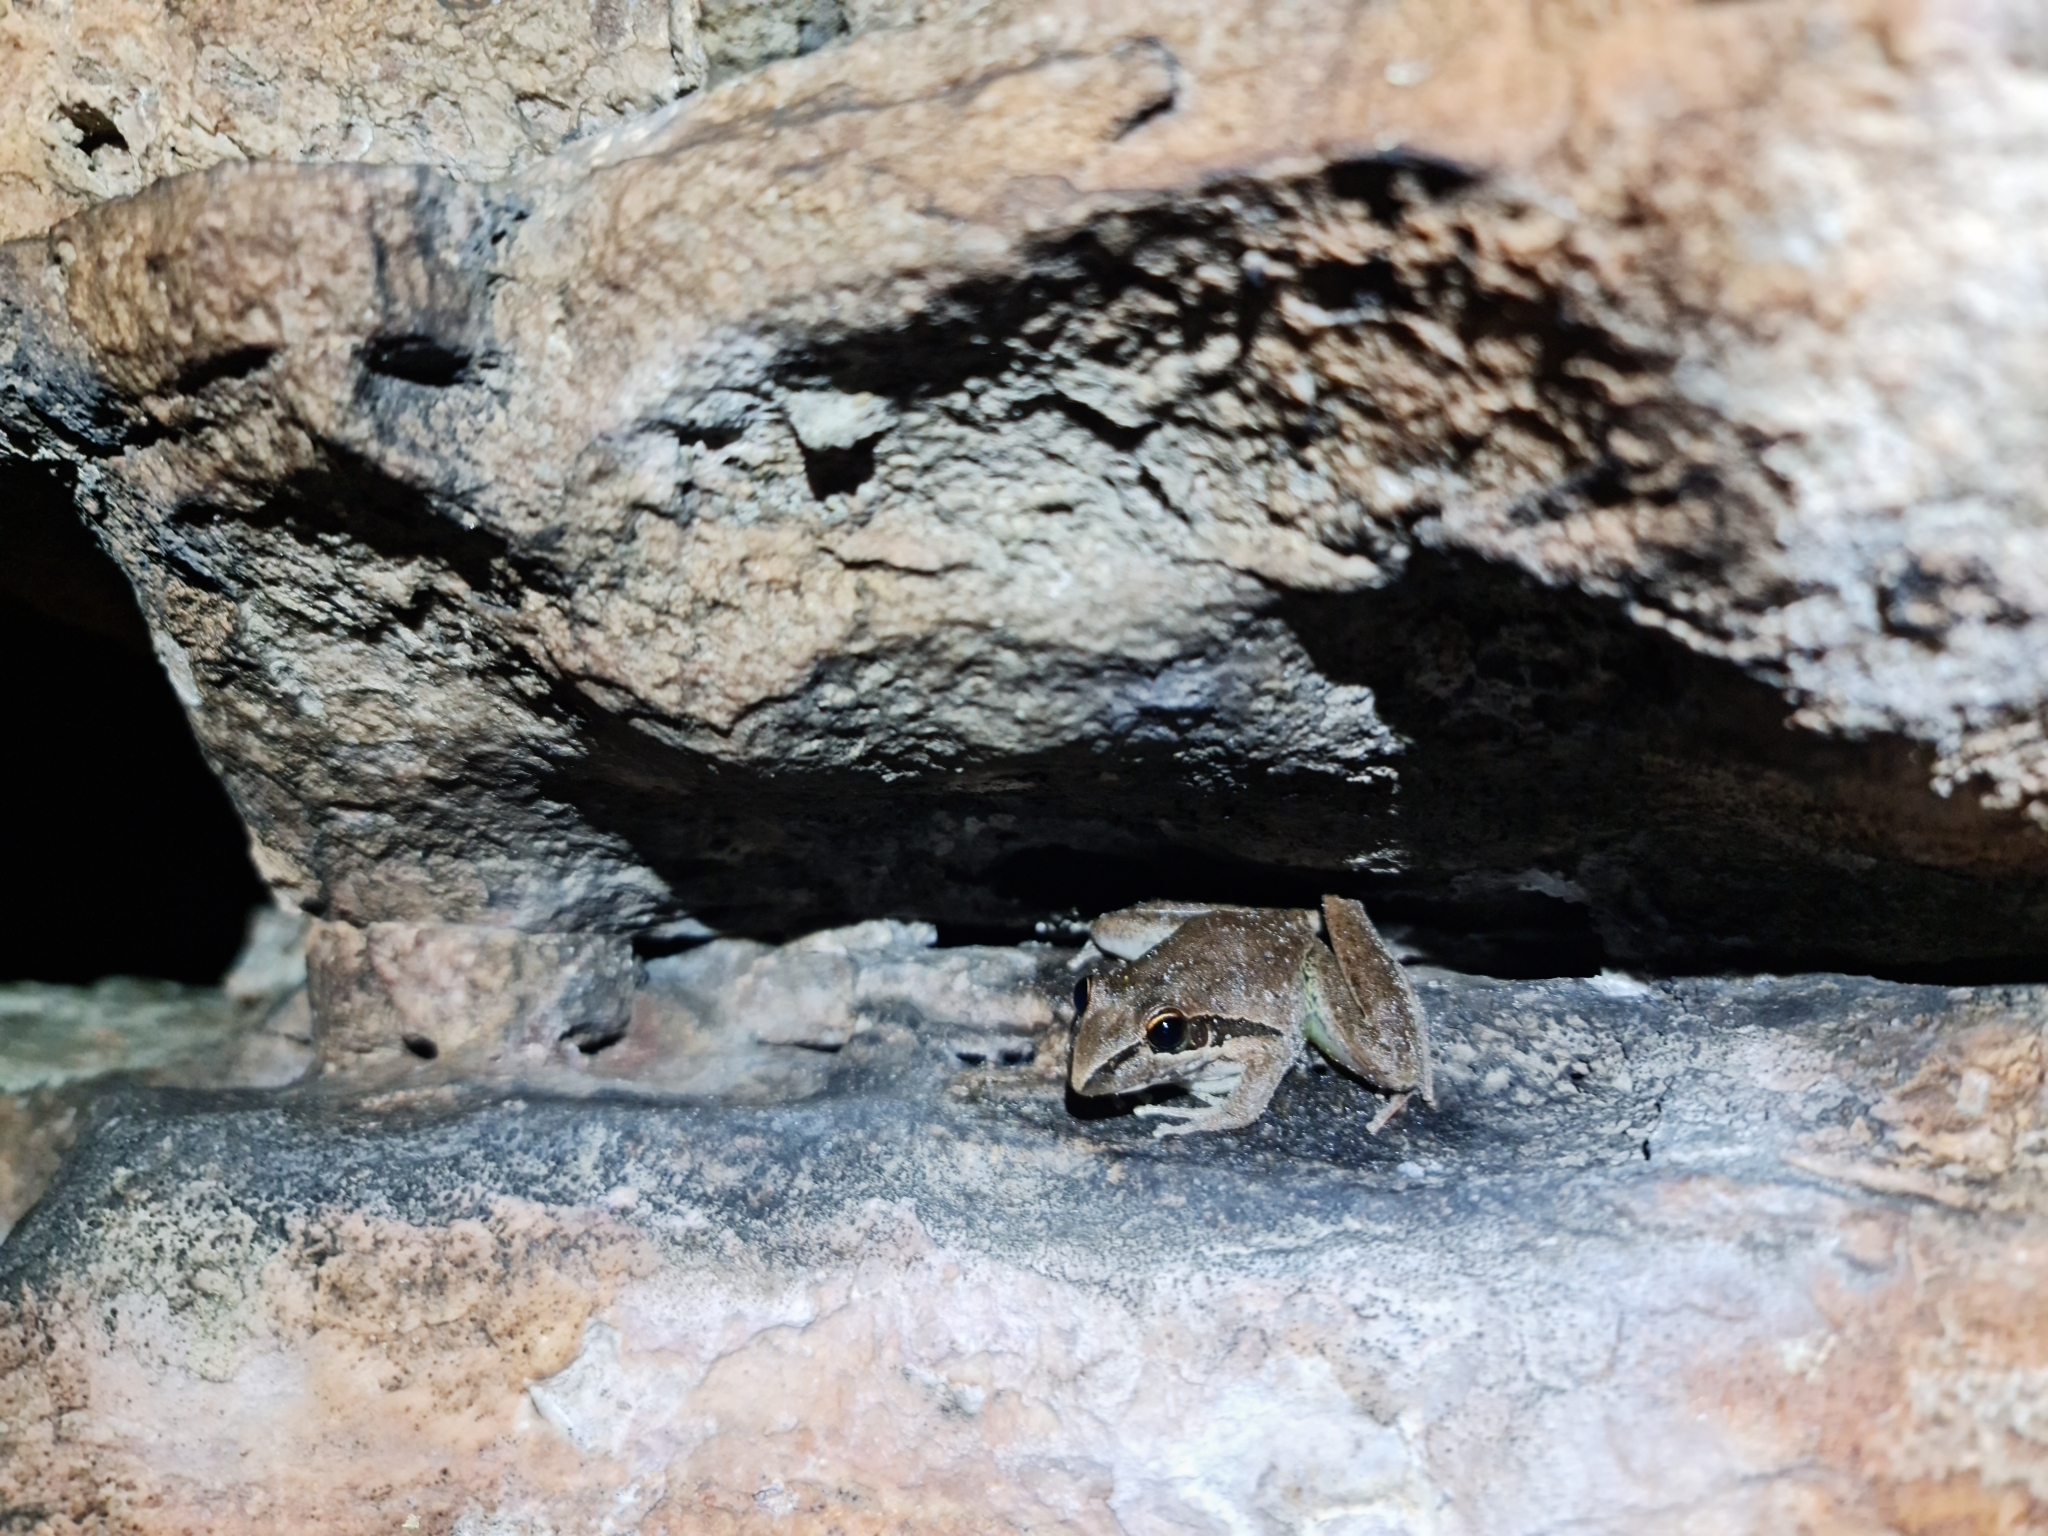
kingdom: Animalia
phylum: Chordata
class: Amphibia
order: Anura
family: Pelodryadidae
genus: Litoria
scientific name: Litoria watjulumensis
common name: Wotjulum frog
